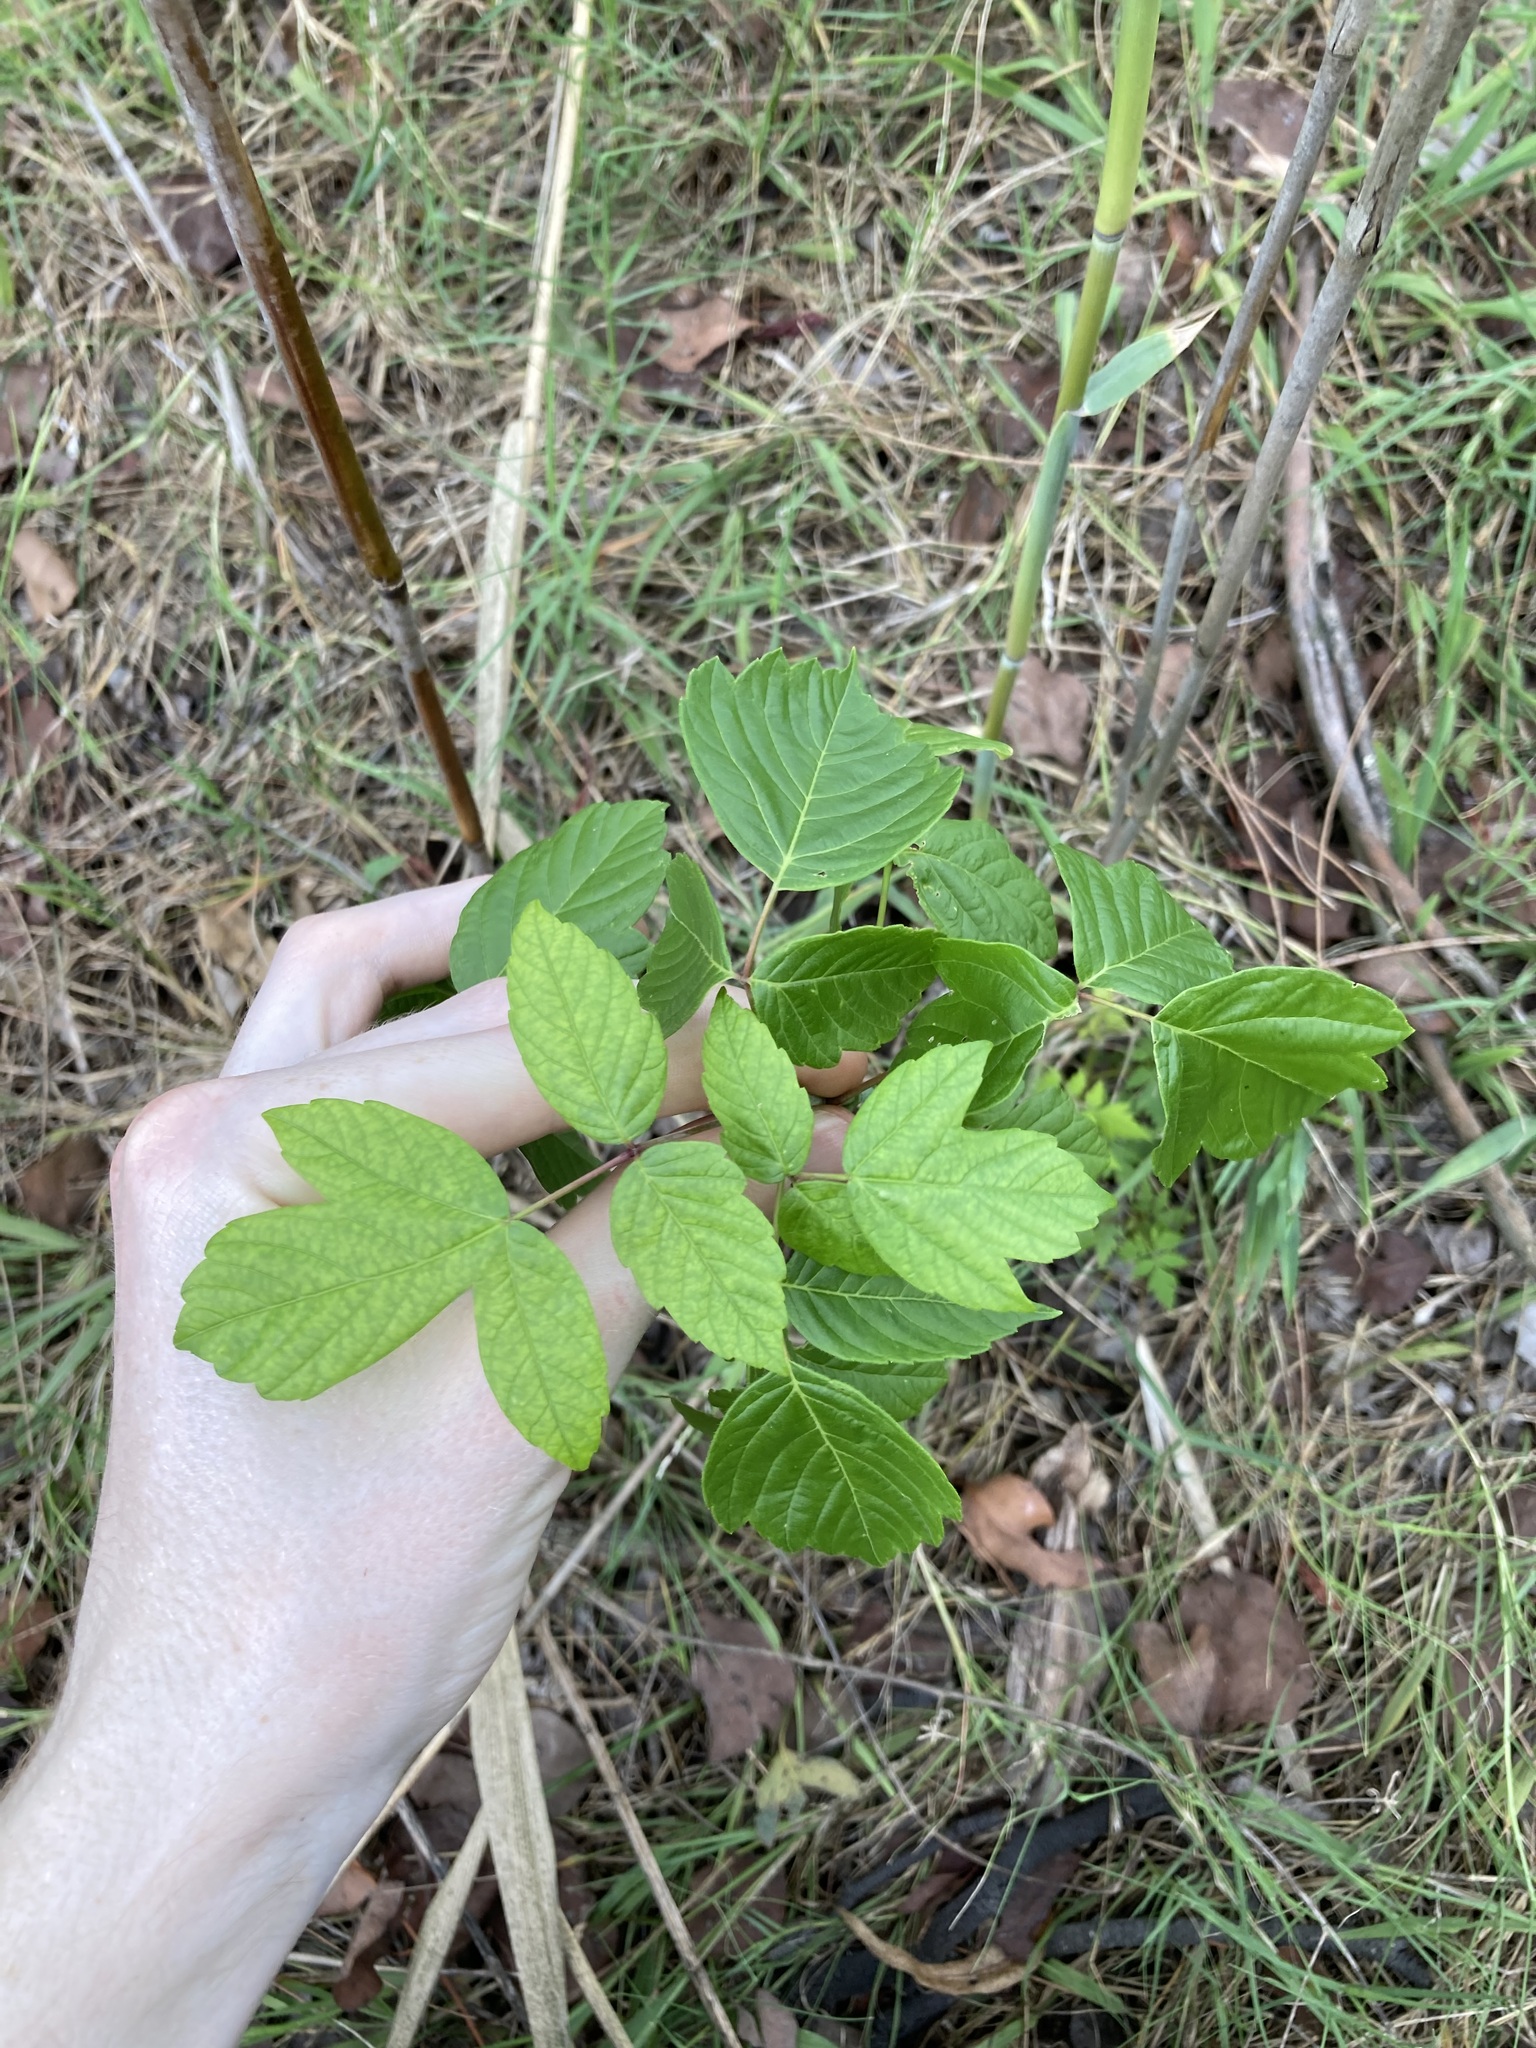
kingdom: Plantae
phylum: Tracheophyta
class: Magnoliopsida
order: Sapindales
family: Sapindaceae
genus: Acer
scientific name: Acer negundo
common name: Ashleaf maple
